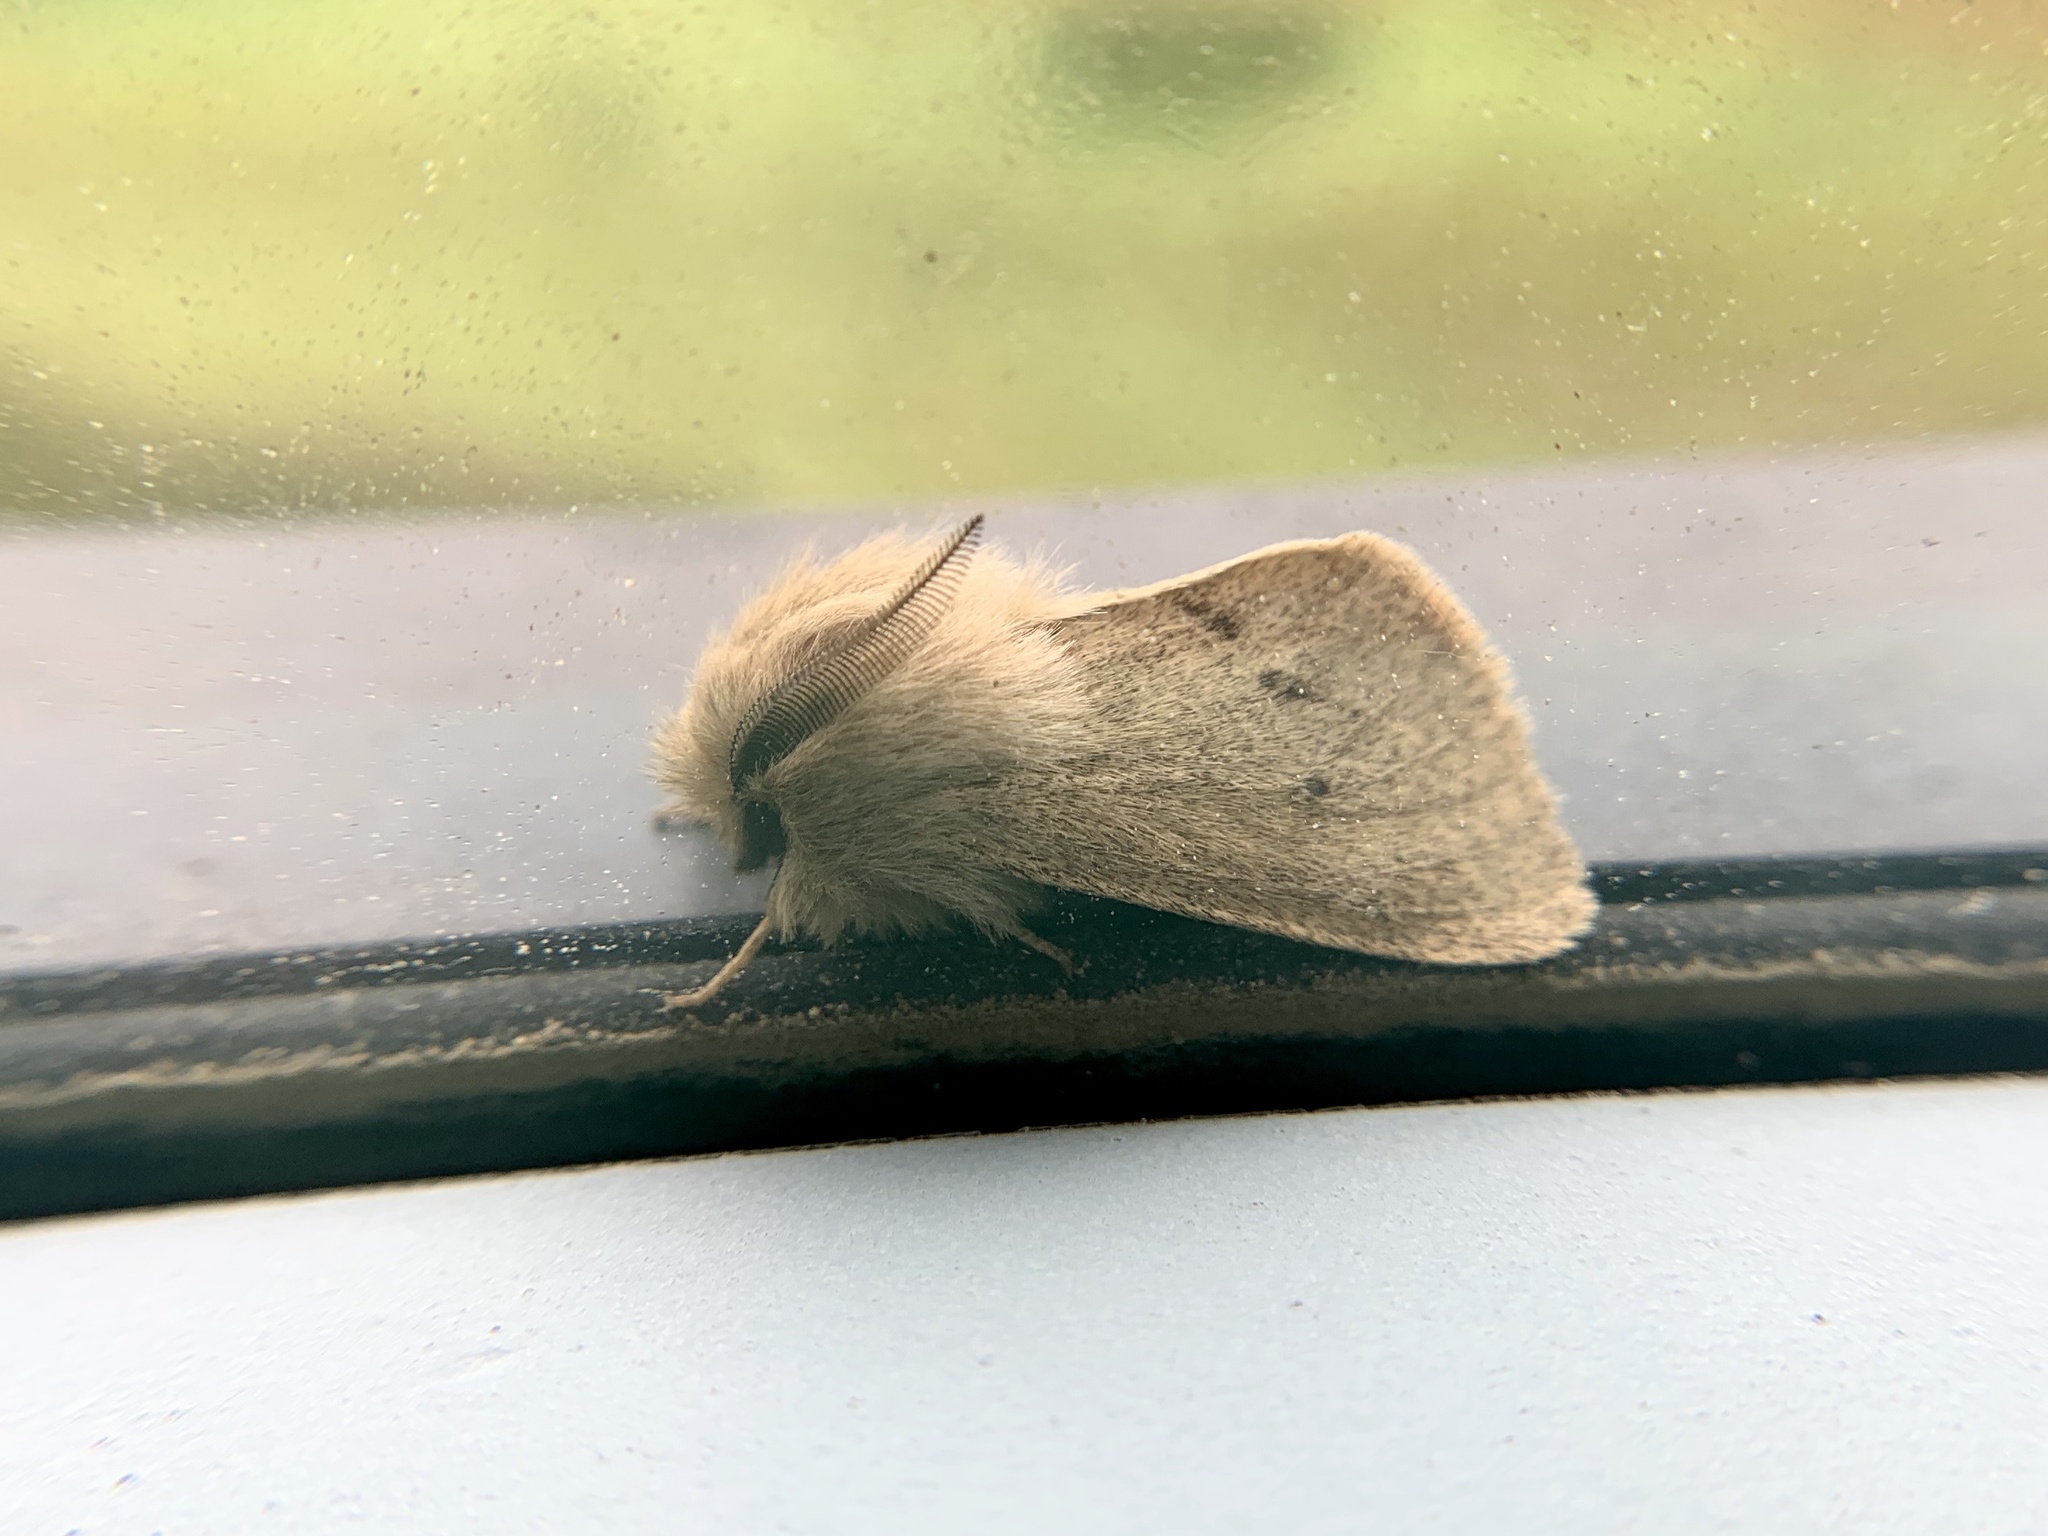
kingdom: Animalia
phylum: Arthropoda
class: Insecta
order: Lepidoptera
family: Erebidae
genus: Spilosoma
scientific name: Spilosoma vagans
